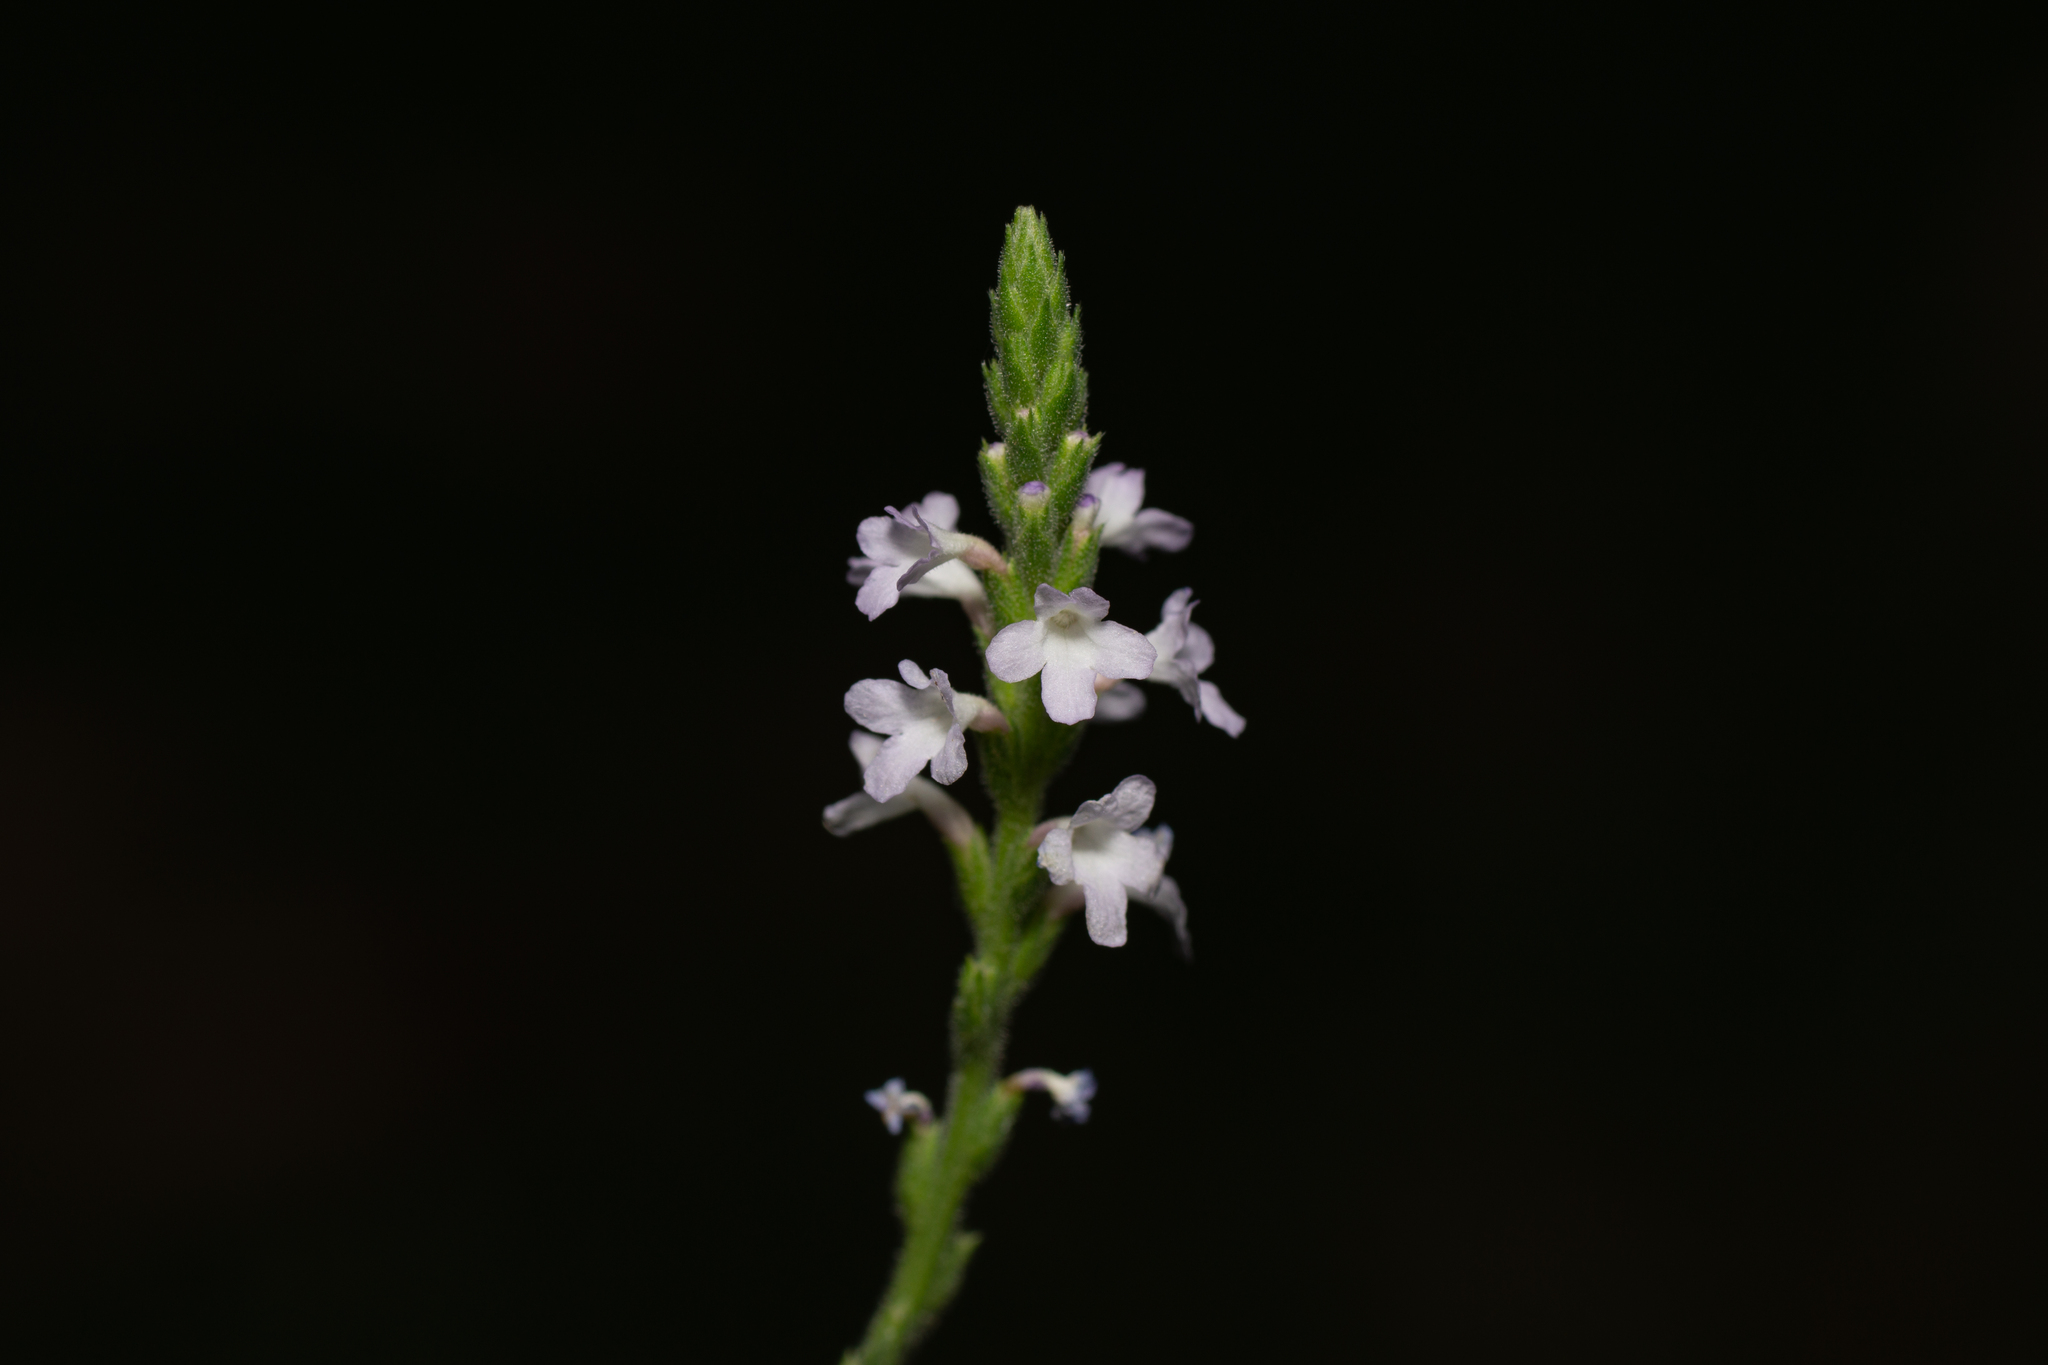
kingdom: Plantae
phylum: Tracheophyta
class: Magnoliopsida
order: Lamiales
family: Verbenaceae
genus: Verbena
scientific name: Verbena officinalis
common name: Vervain
